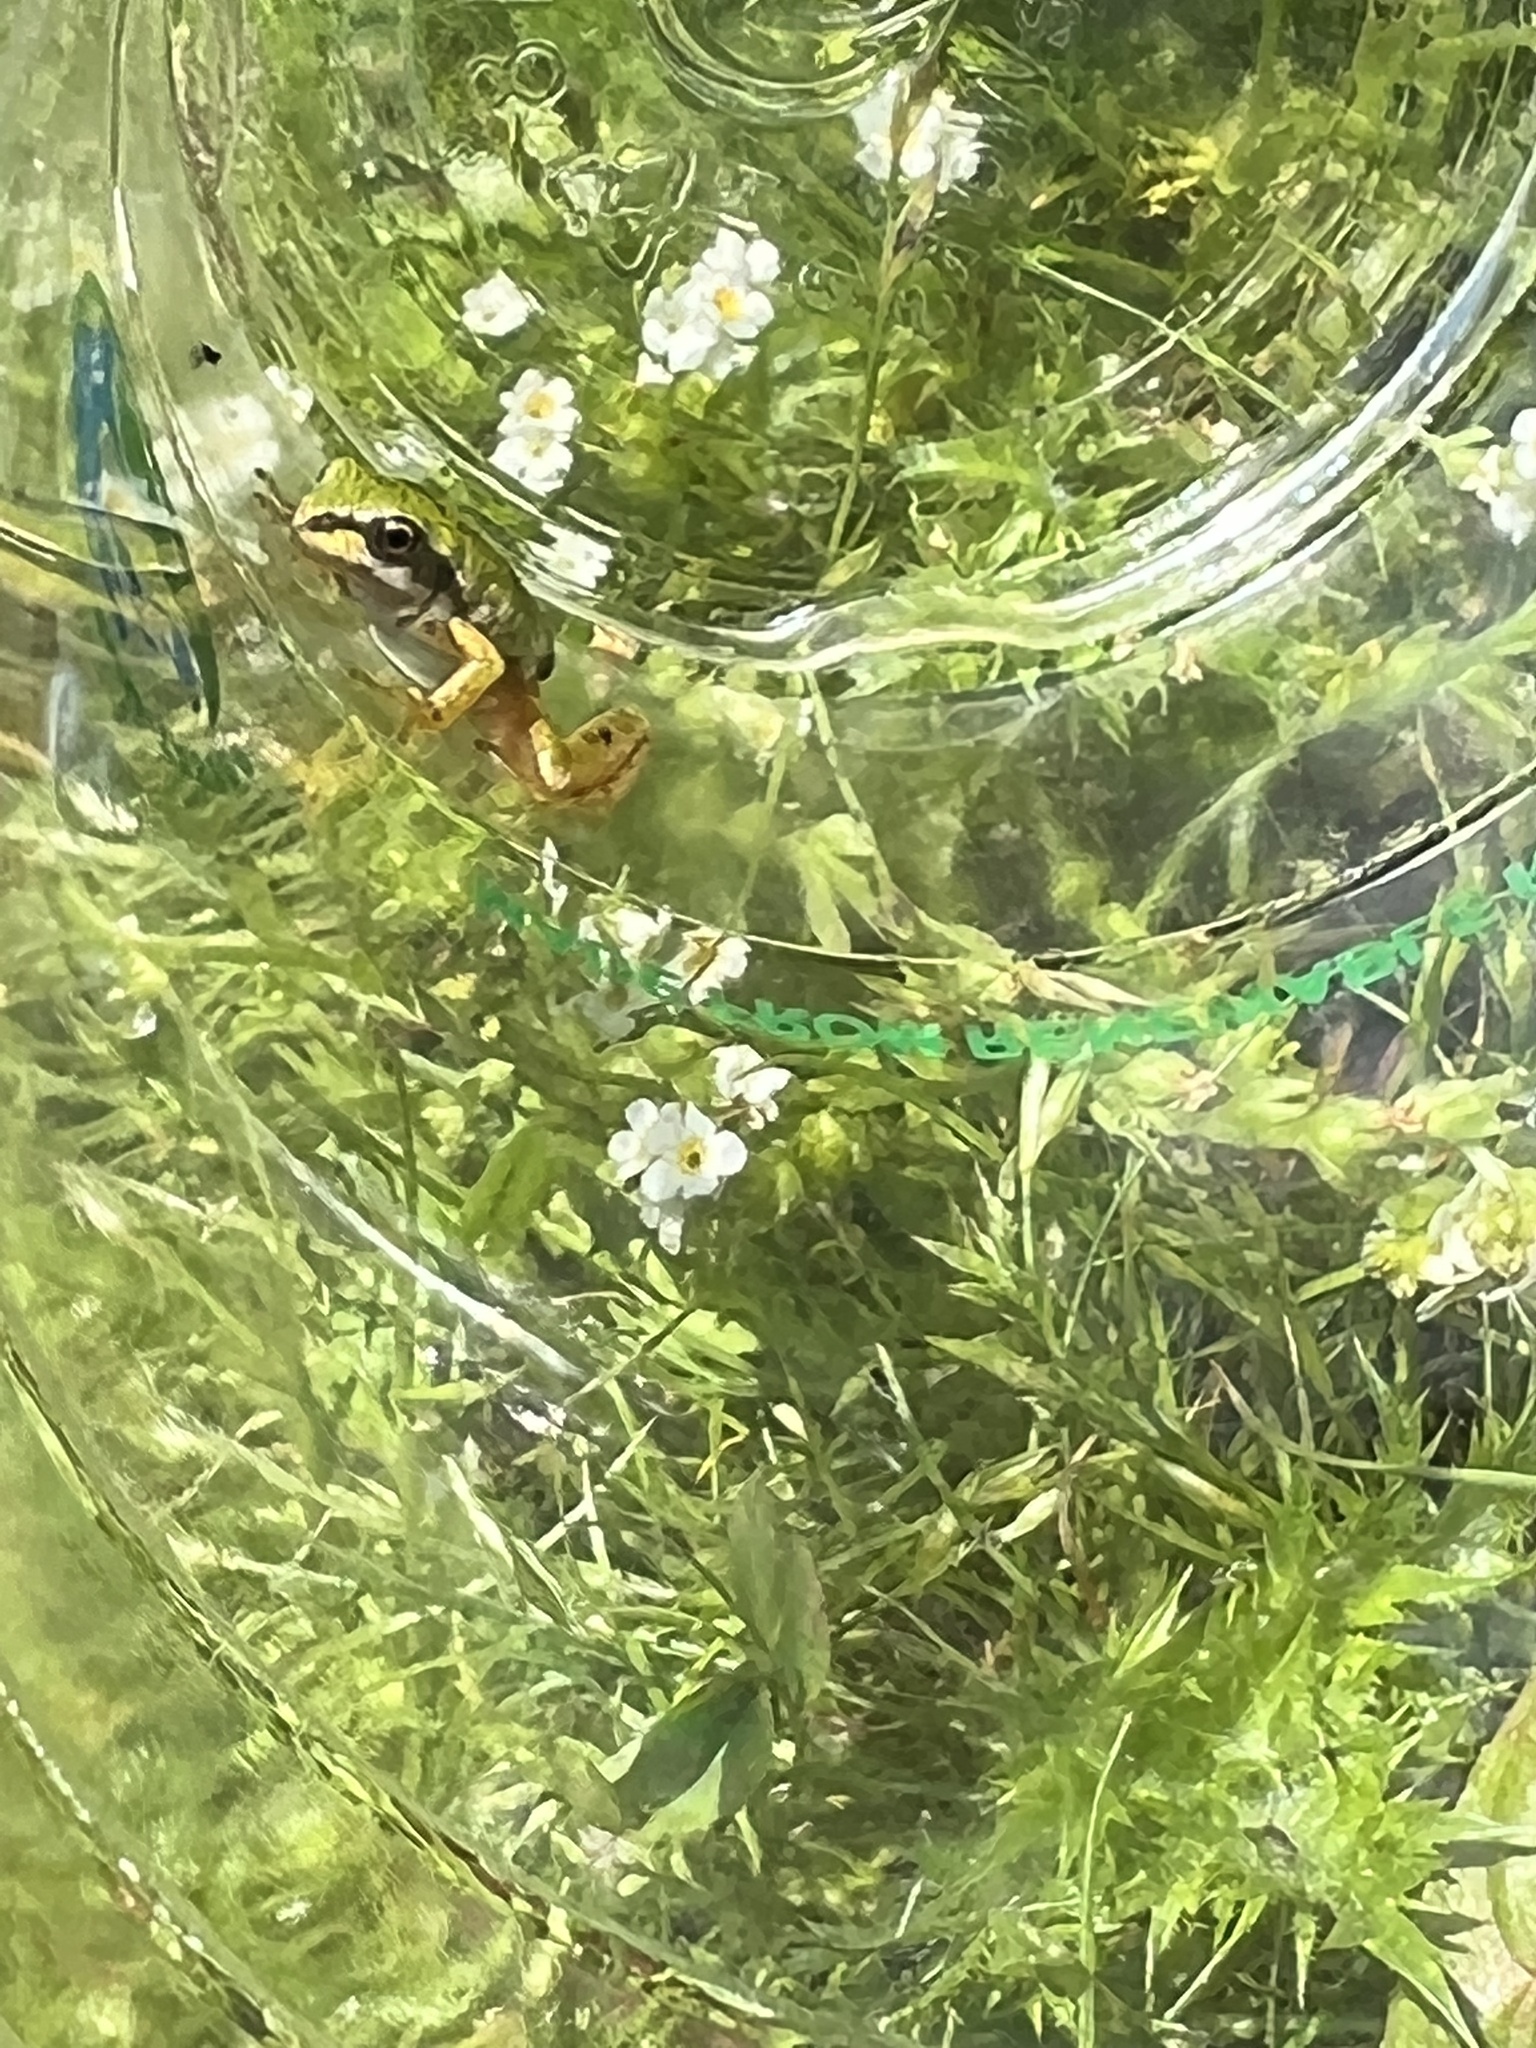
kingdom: Animalia
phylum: Chordata
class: Amphibia
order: Anura
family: Hylidae
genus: Pseudacris
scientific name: Pseudacris regilla
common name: Pacific chorus frog
